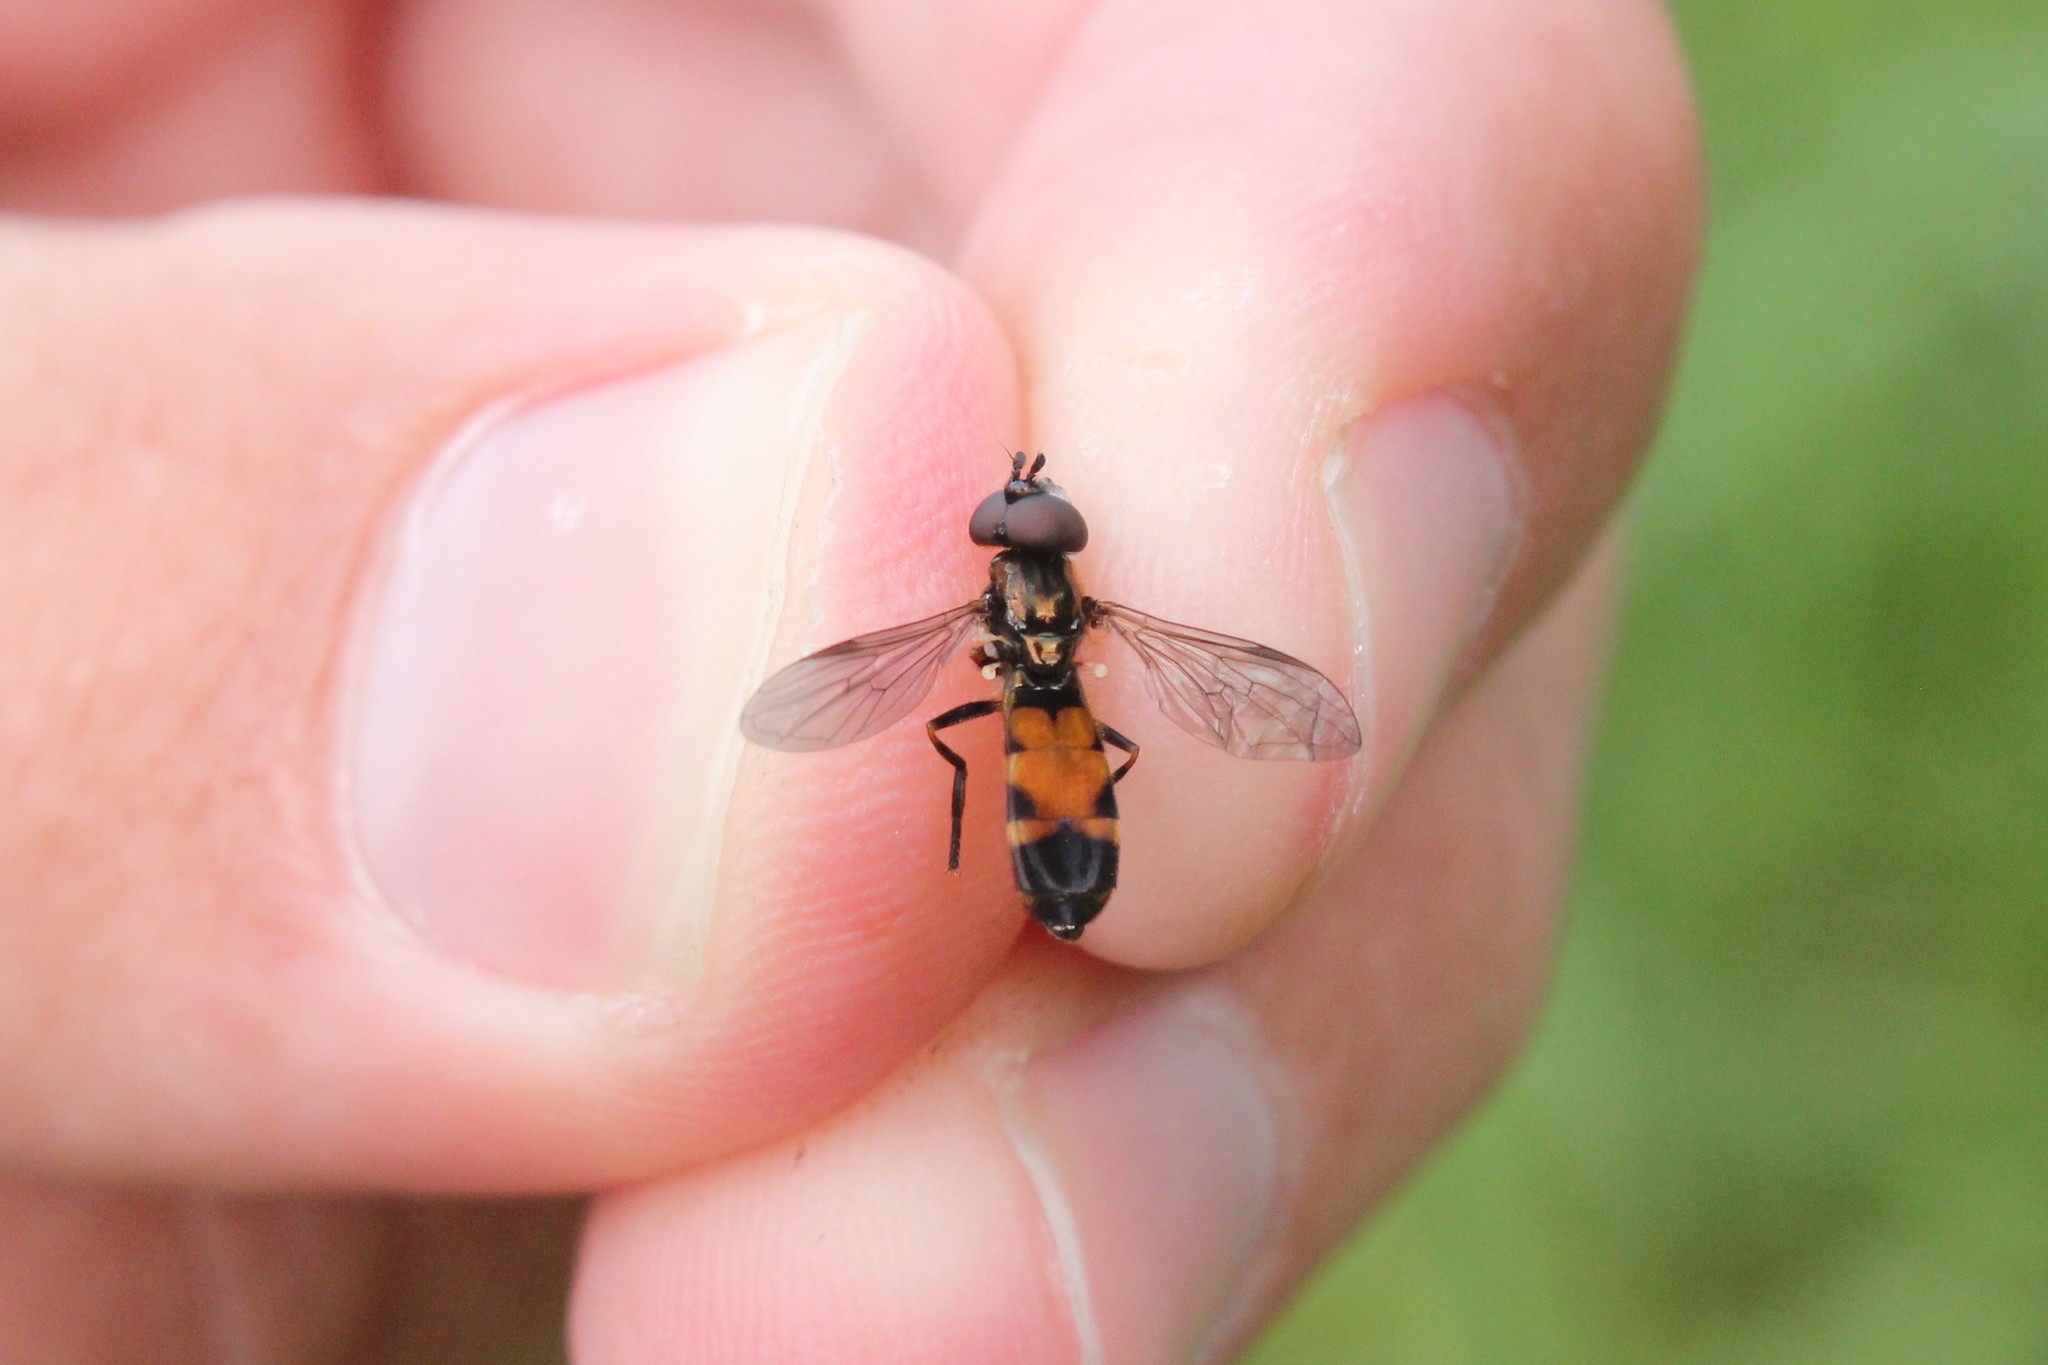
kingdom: Animalia
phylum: Arthropoda
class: Insecta
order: Diptera
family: Syrphidae
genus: Pyrophaena
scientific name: Pyrophaena granditarsa
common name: Hornhand sedgesitter
